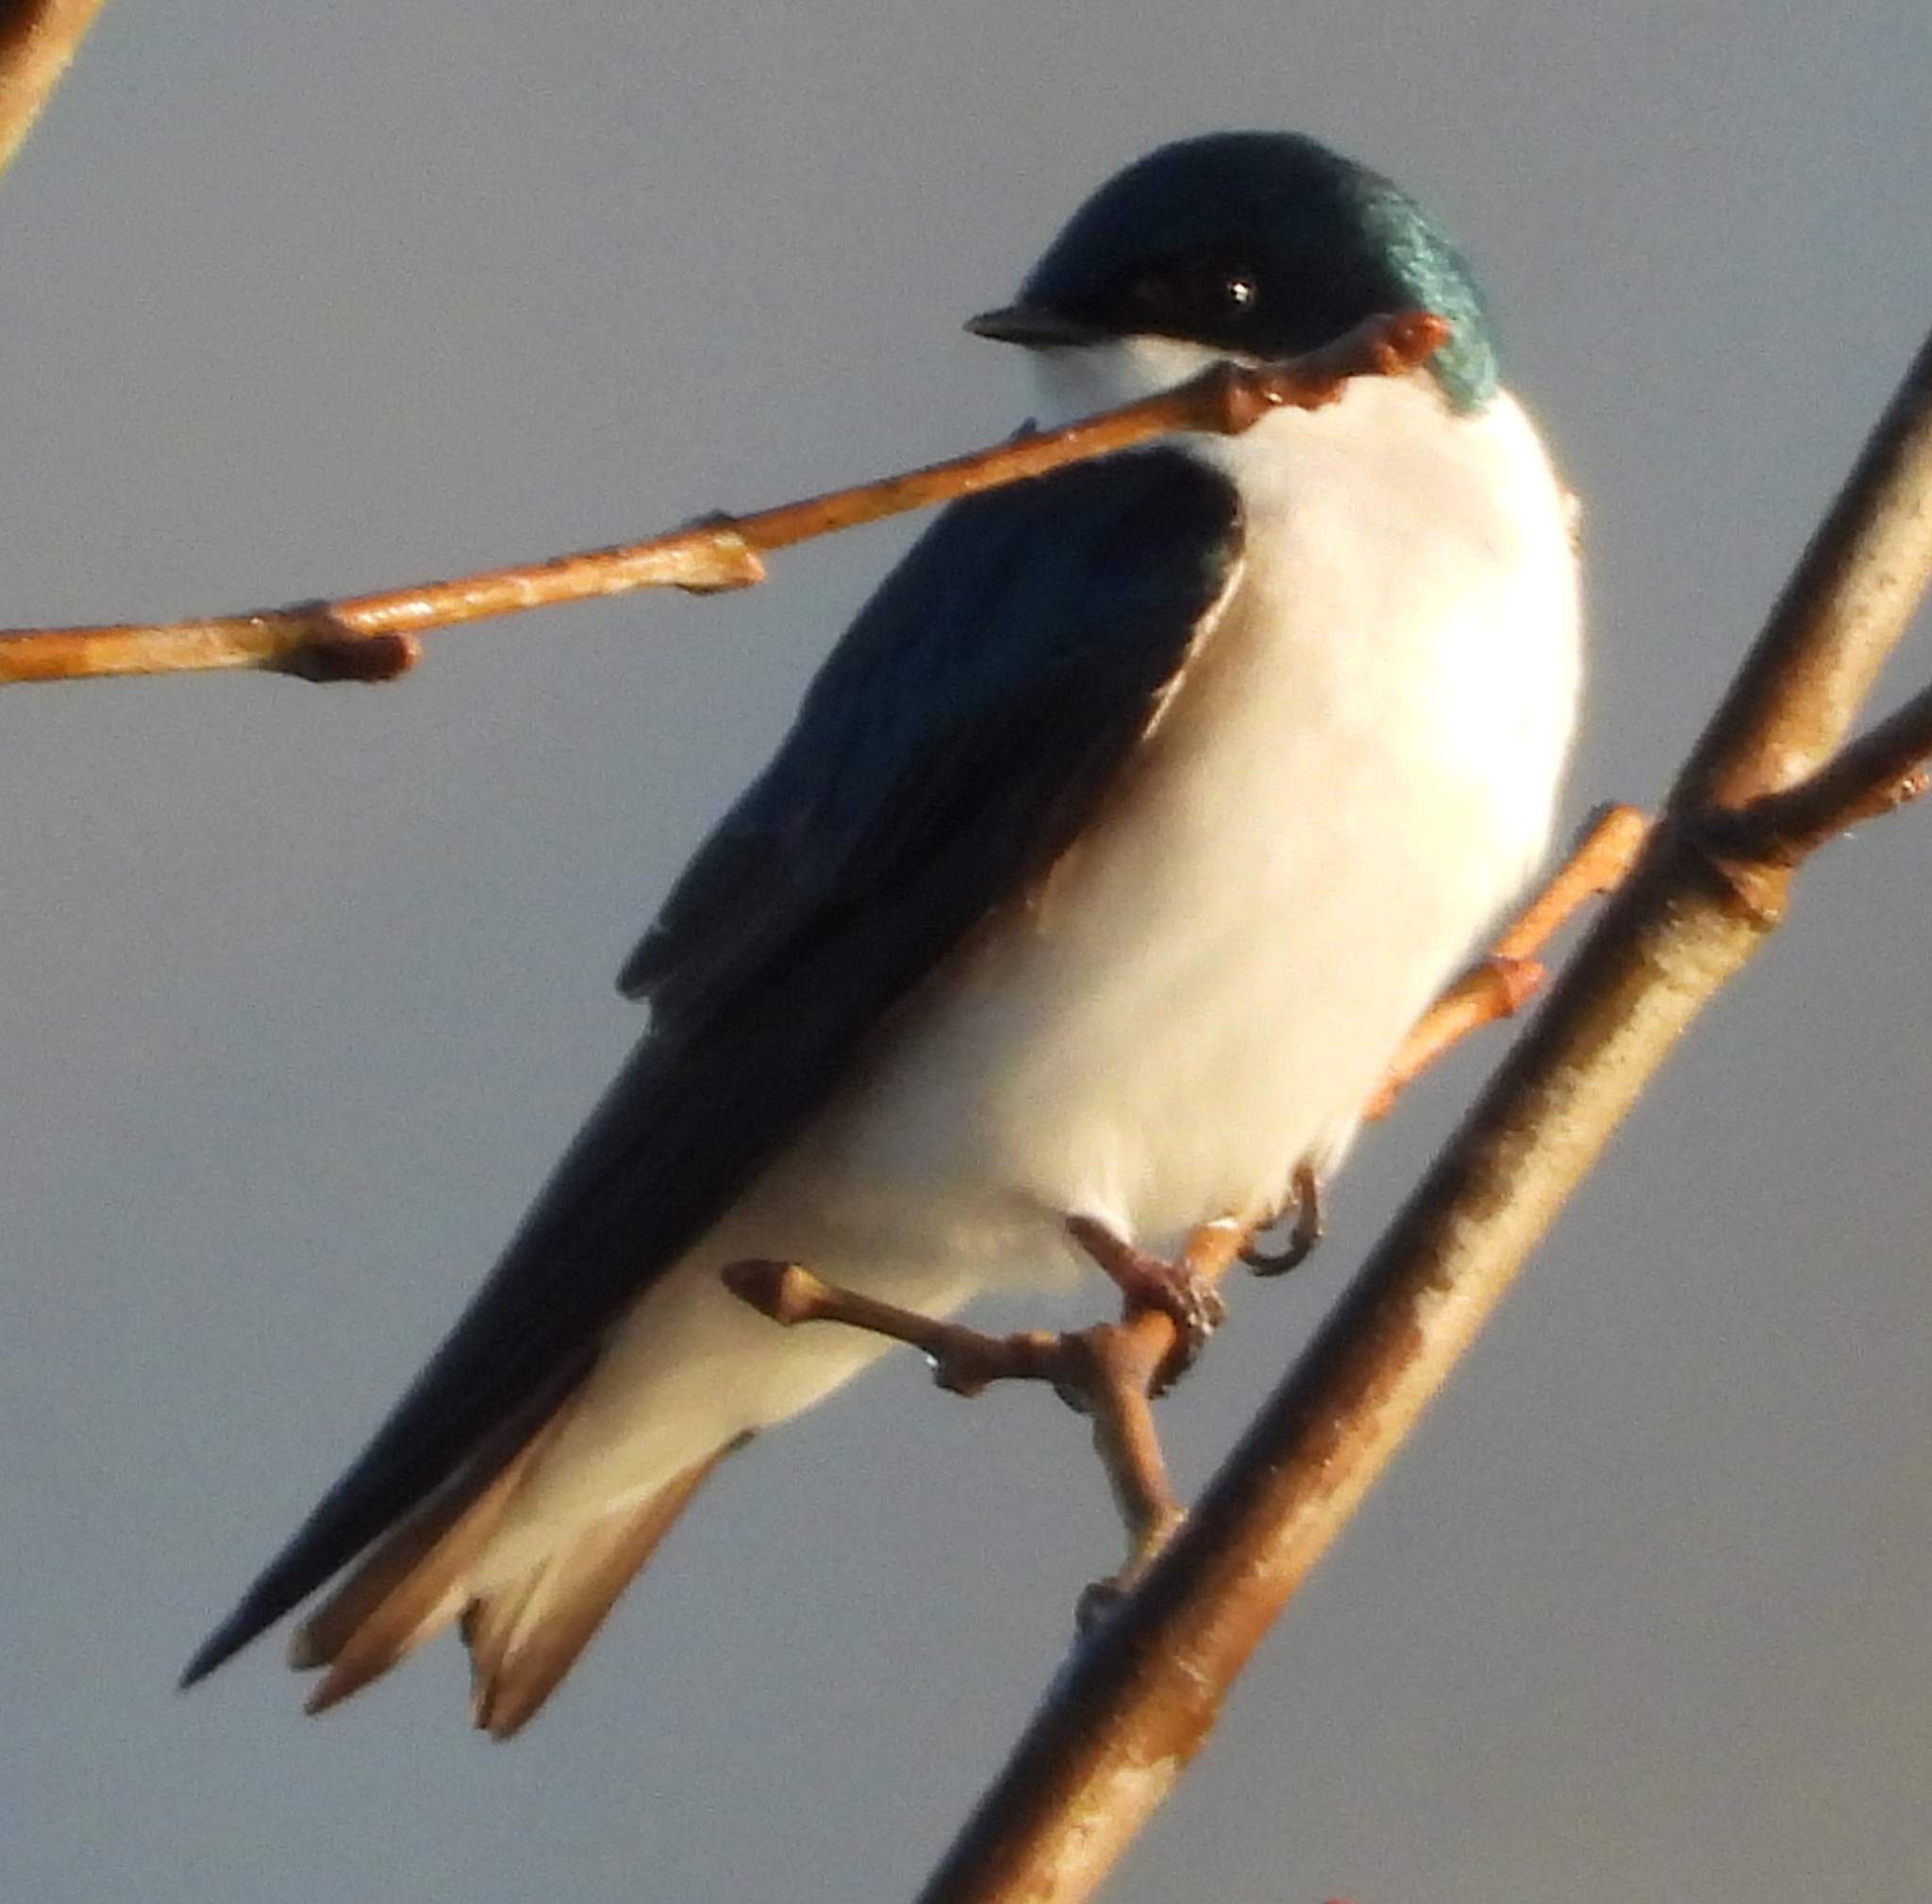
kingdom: Animalia
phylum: Chordata
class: Aves
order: Passeriformes
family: Hirundinidae
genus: Tachycineta
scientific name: Tachycineta bicolor
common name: Tree swallow
